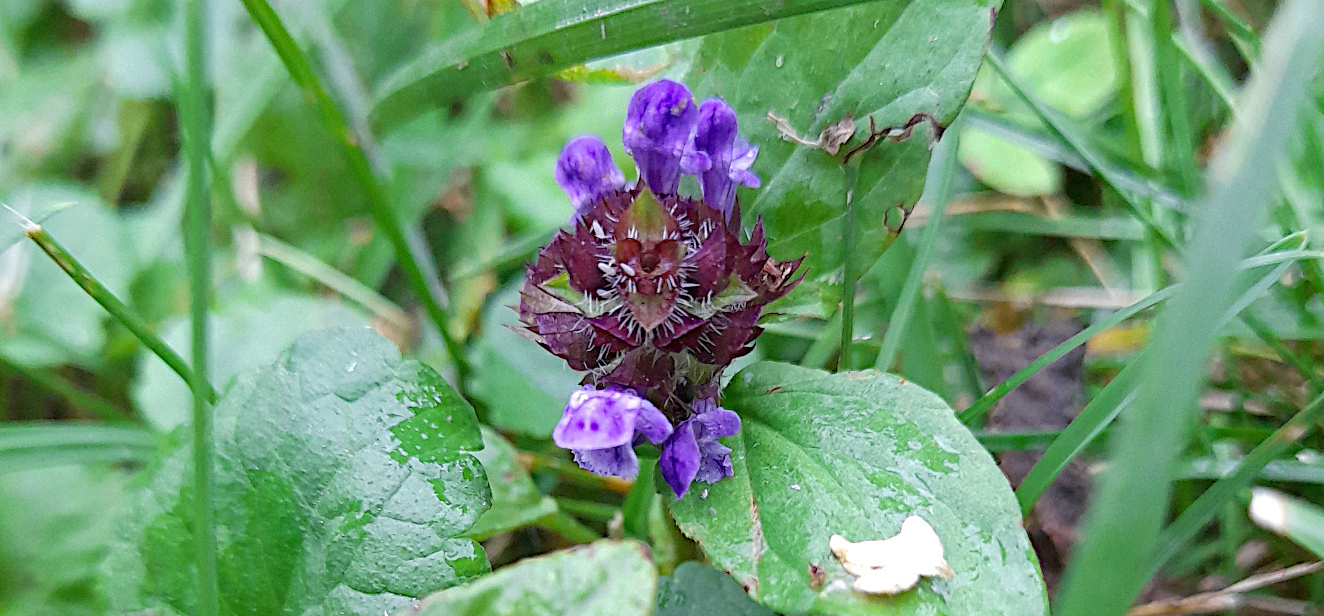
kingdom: Plantae
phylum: Tracheophyta
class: Magnoliopsida
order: Lamiales
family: Lamiaceae
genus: Prunella
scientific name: Prunella vulgaris
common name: Heal-all
